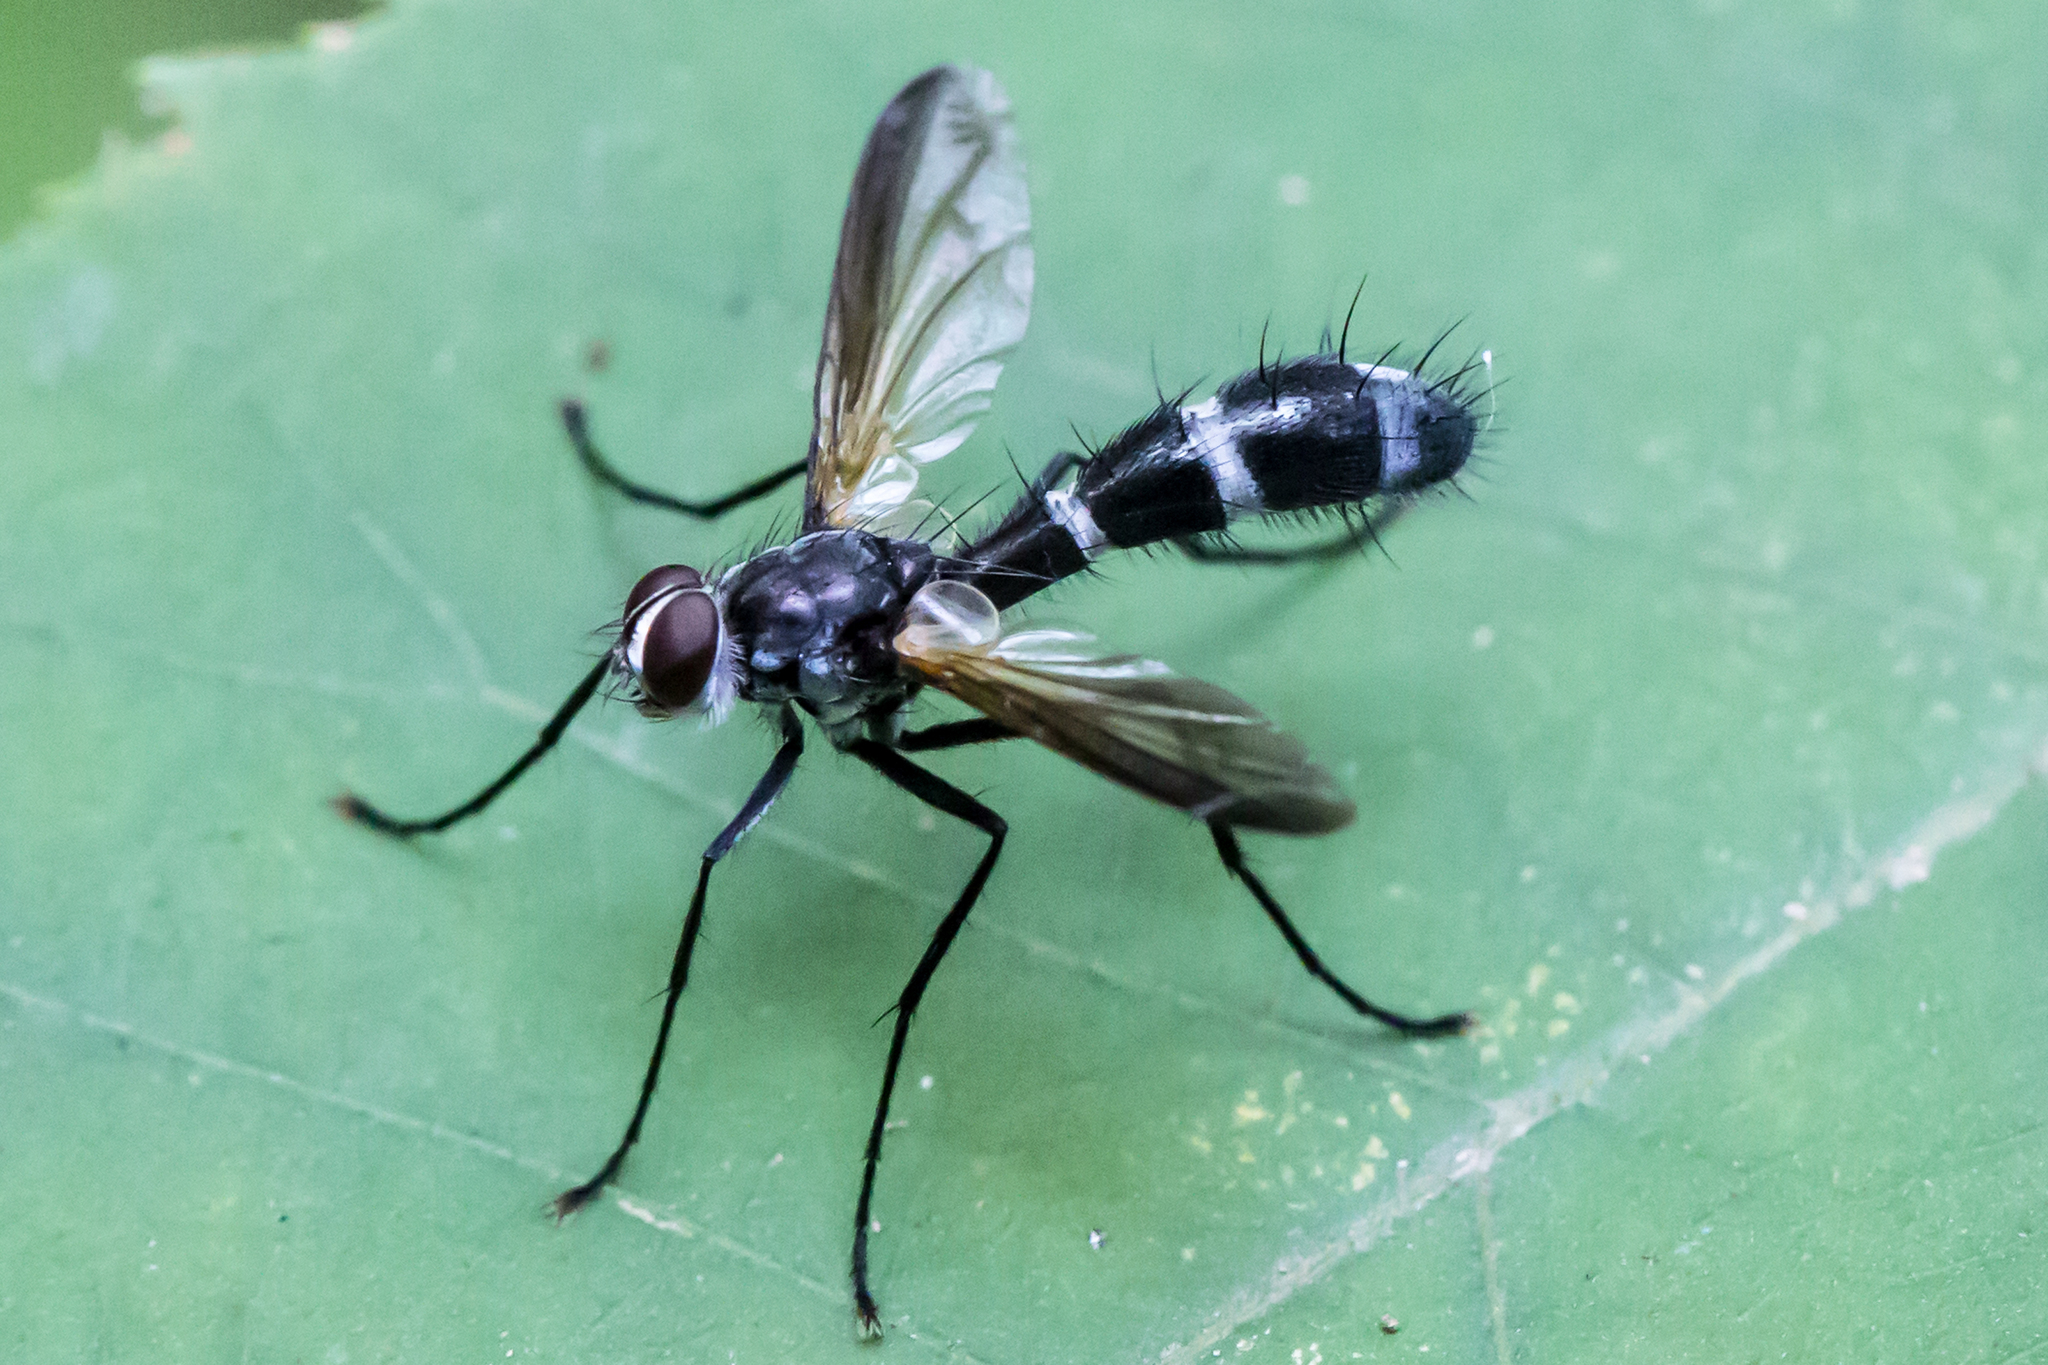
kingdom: Animalia
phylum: Arthropoda
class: Insecta
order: Diptera
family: Tachinidae
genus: Cordyligaster
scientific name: Cordyligaster septentrionalis
